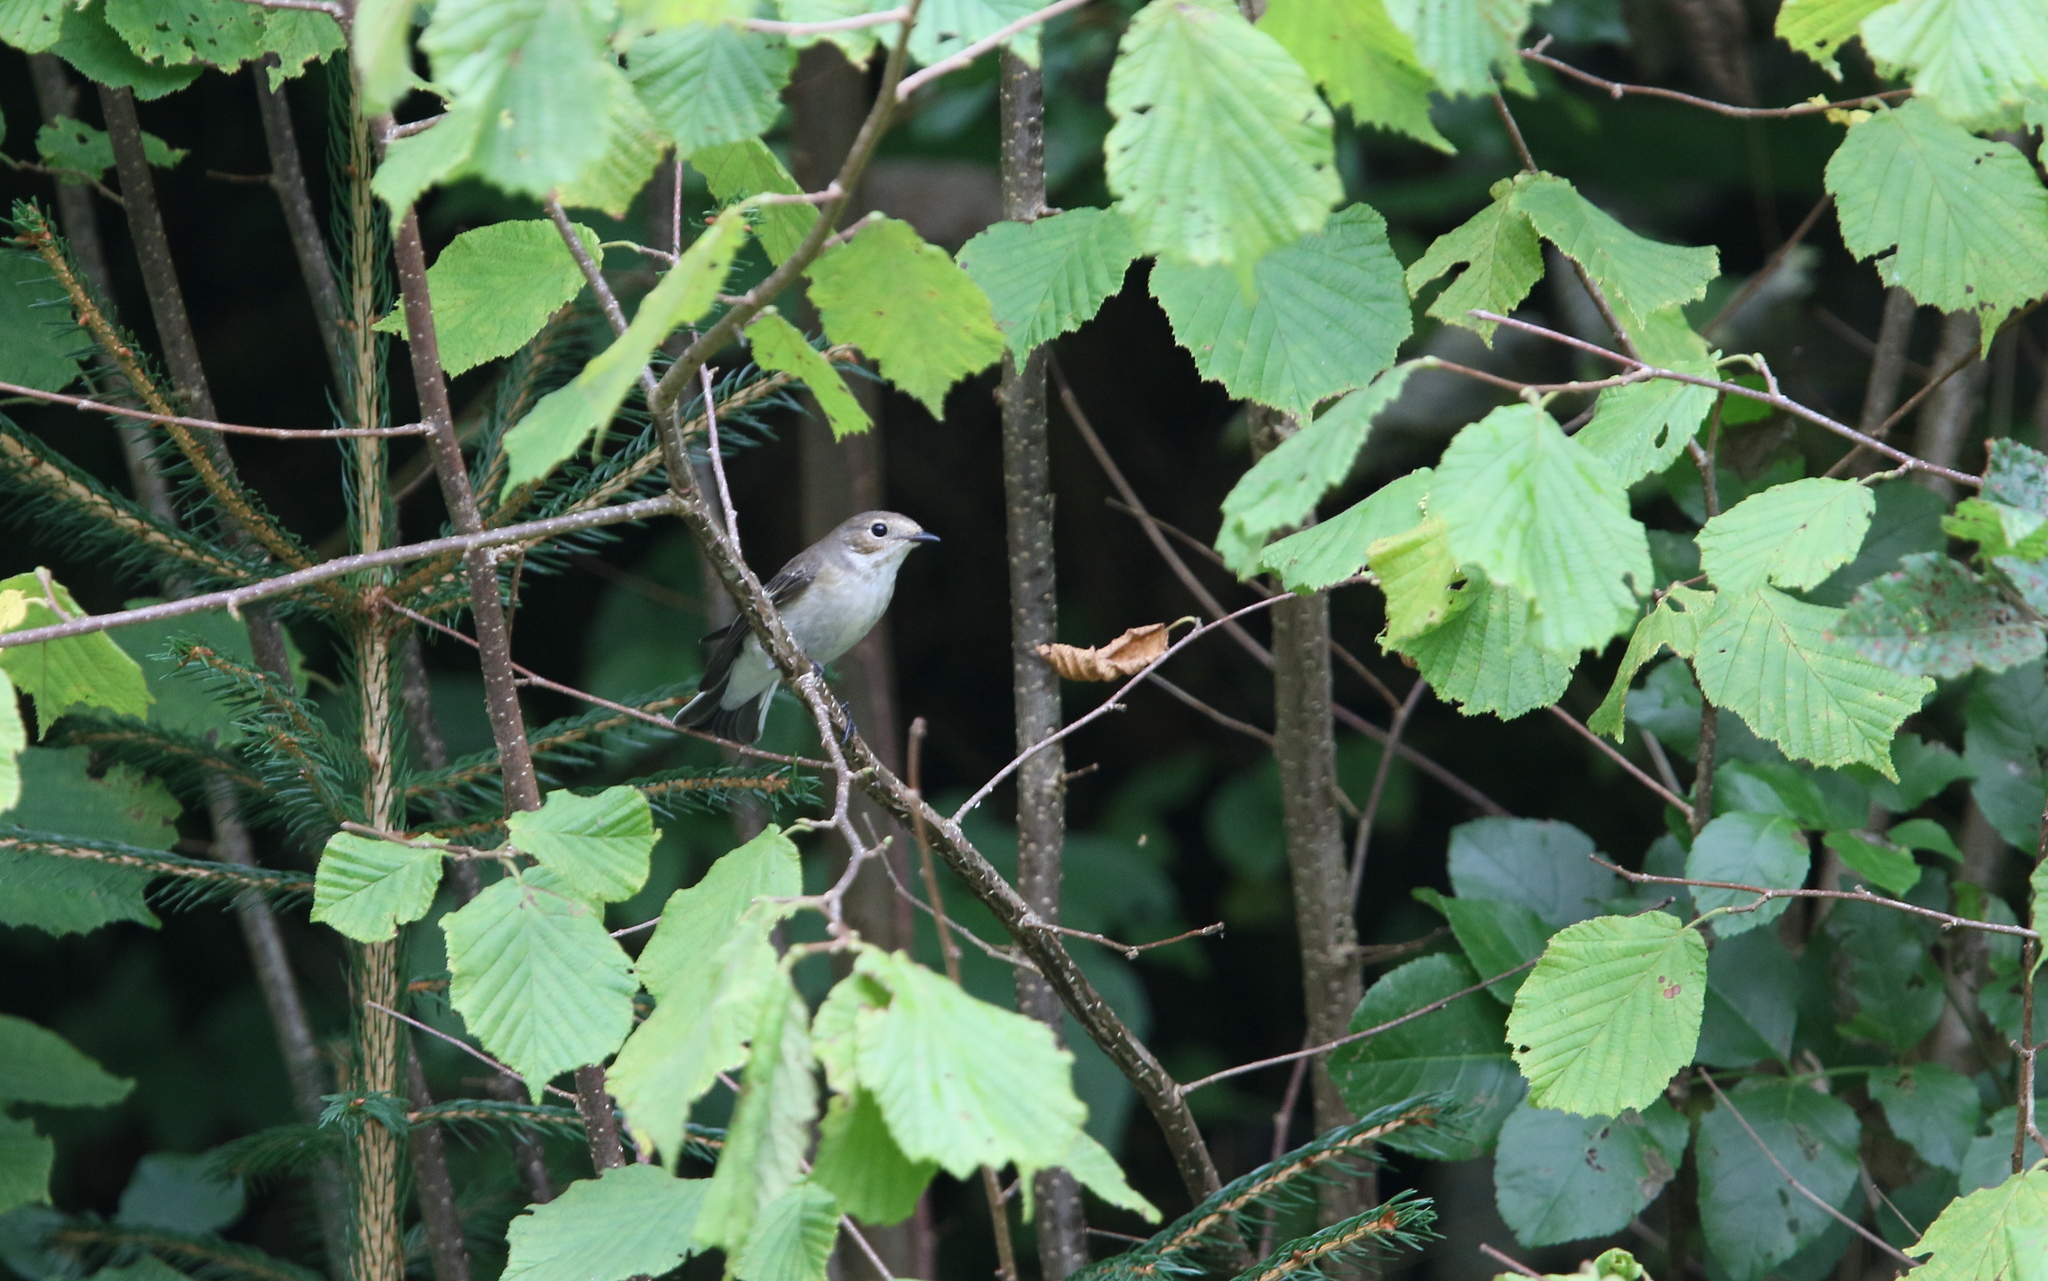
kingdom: Animalia
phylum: Chordata
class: Aves
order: Passeriformes
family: Muscicapidae
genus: Ficedula
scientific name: Ficedula hypoleuca
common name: European pied flycatcher
